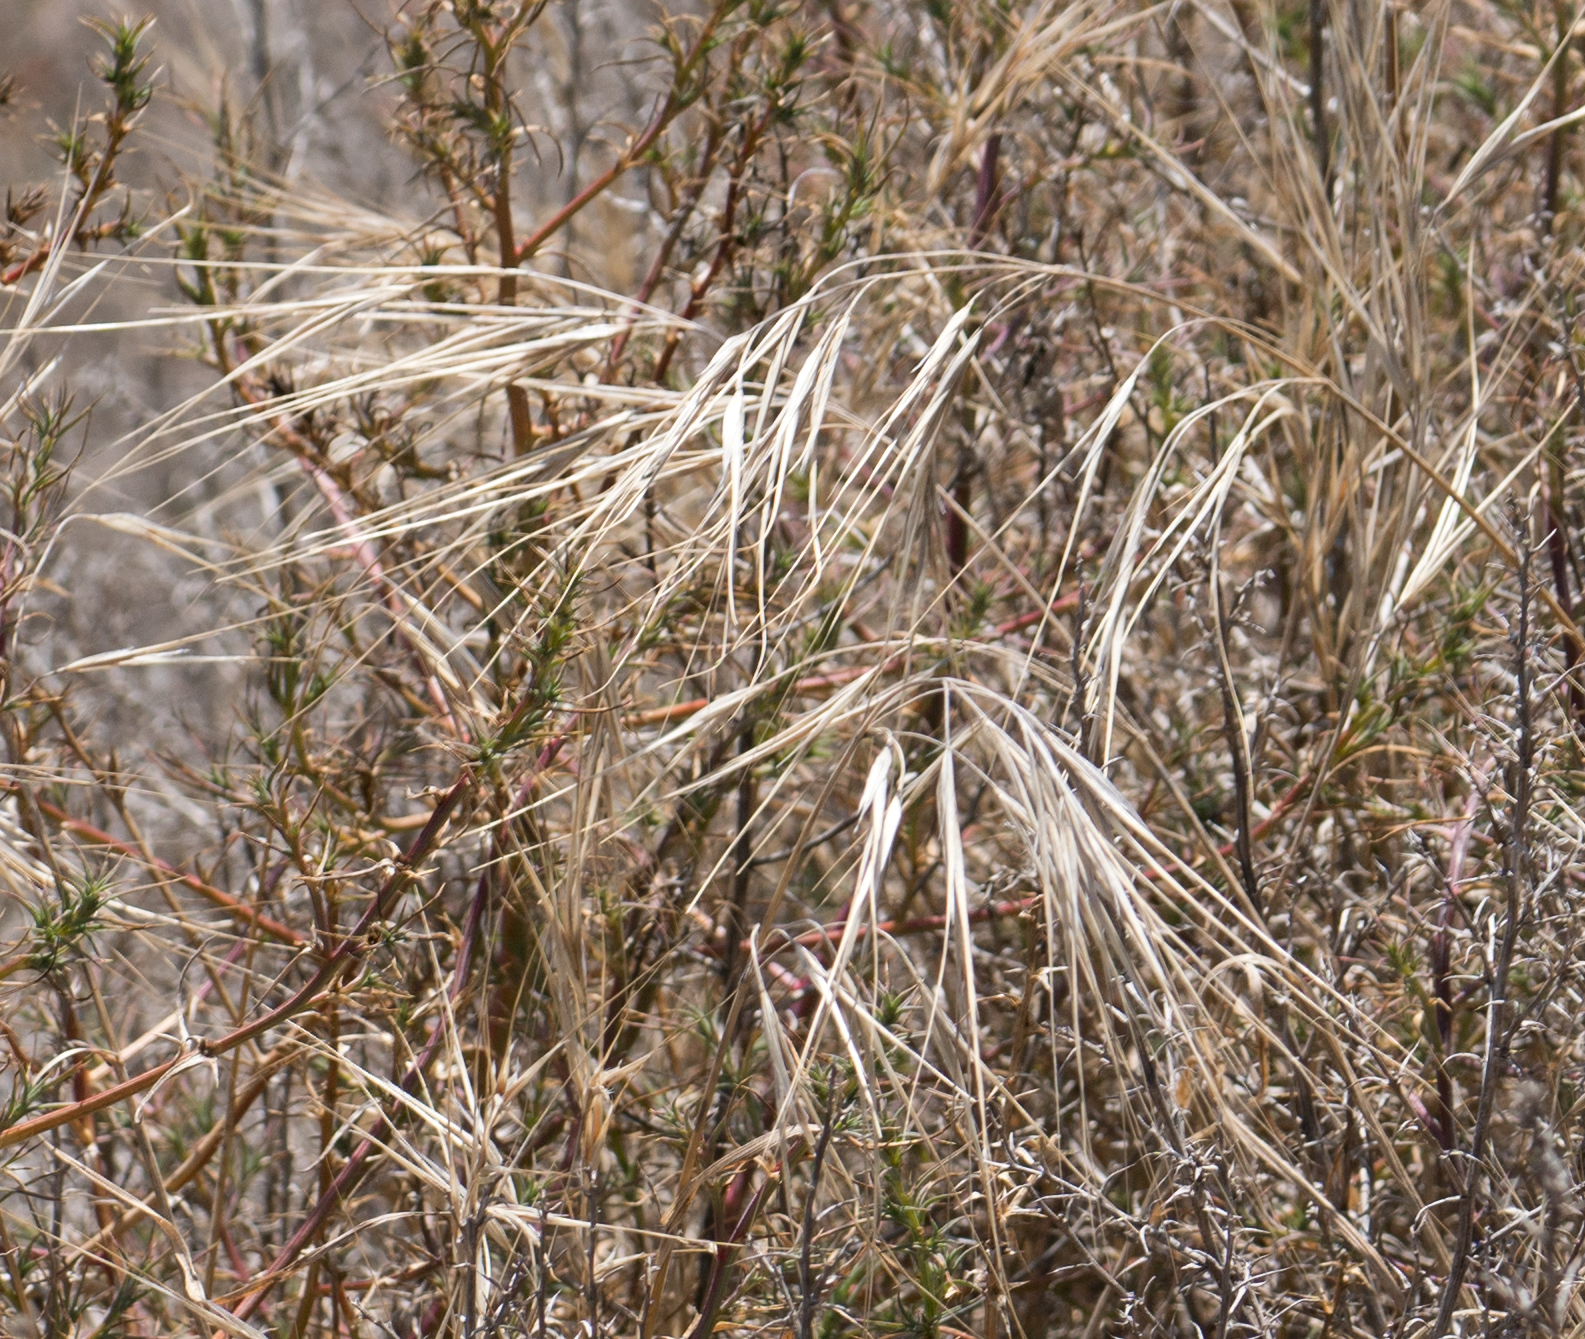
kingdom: Plantae
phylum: Tracheophyta
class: Liliopsida
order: Poales
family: Poaceae
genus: Bromus
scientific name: Bromus diandrus
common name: Ripgut brome
